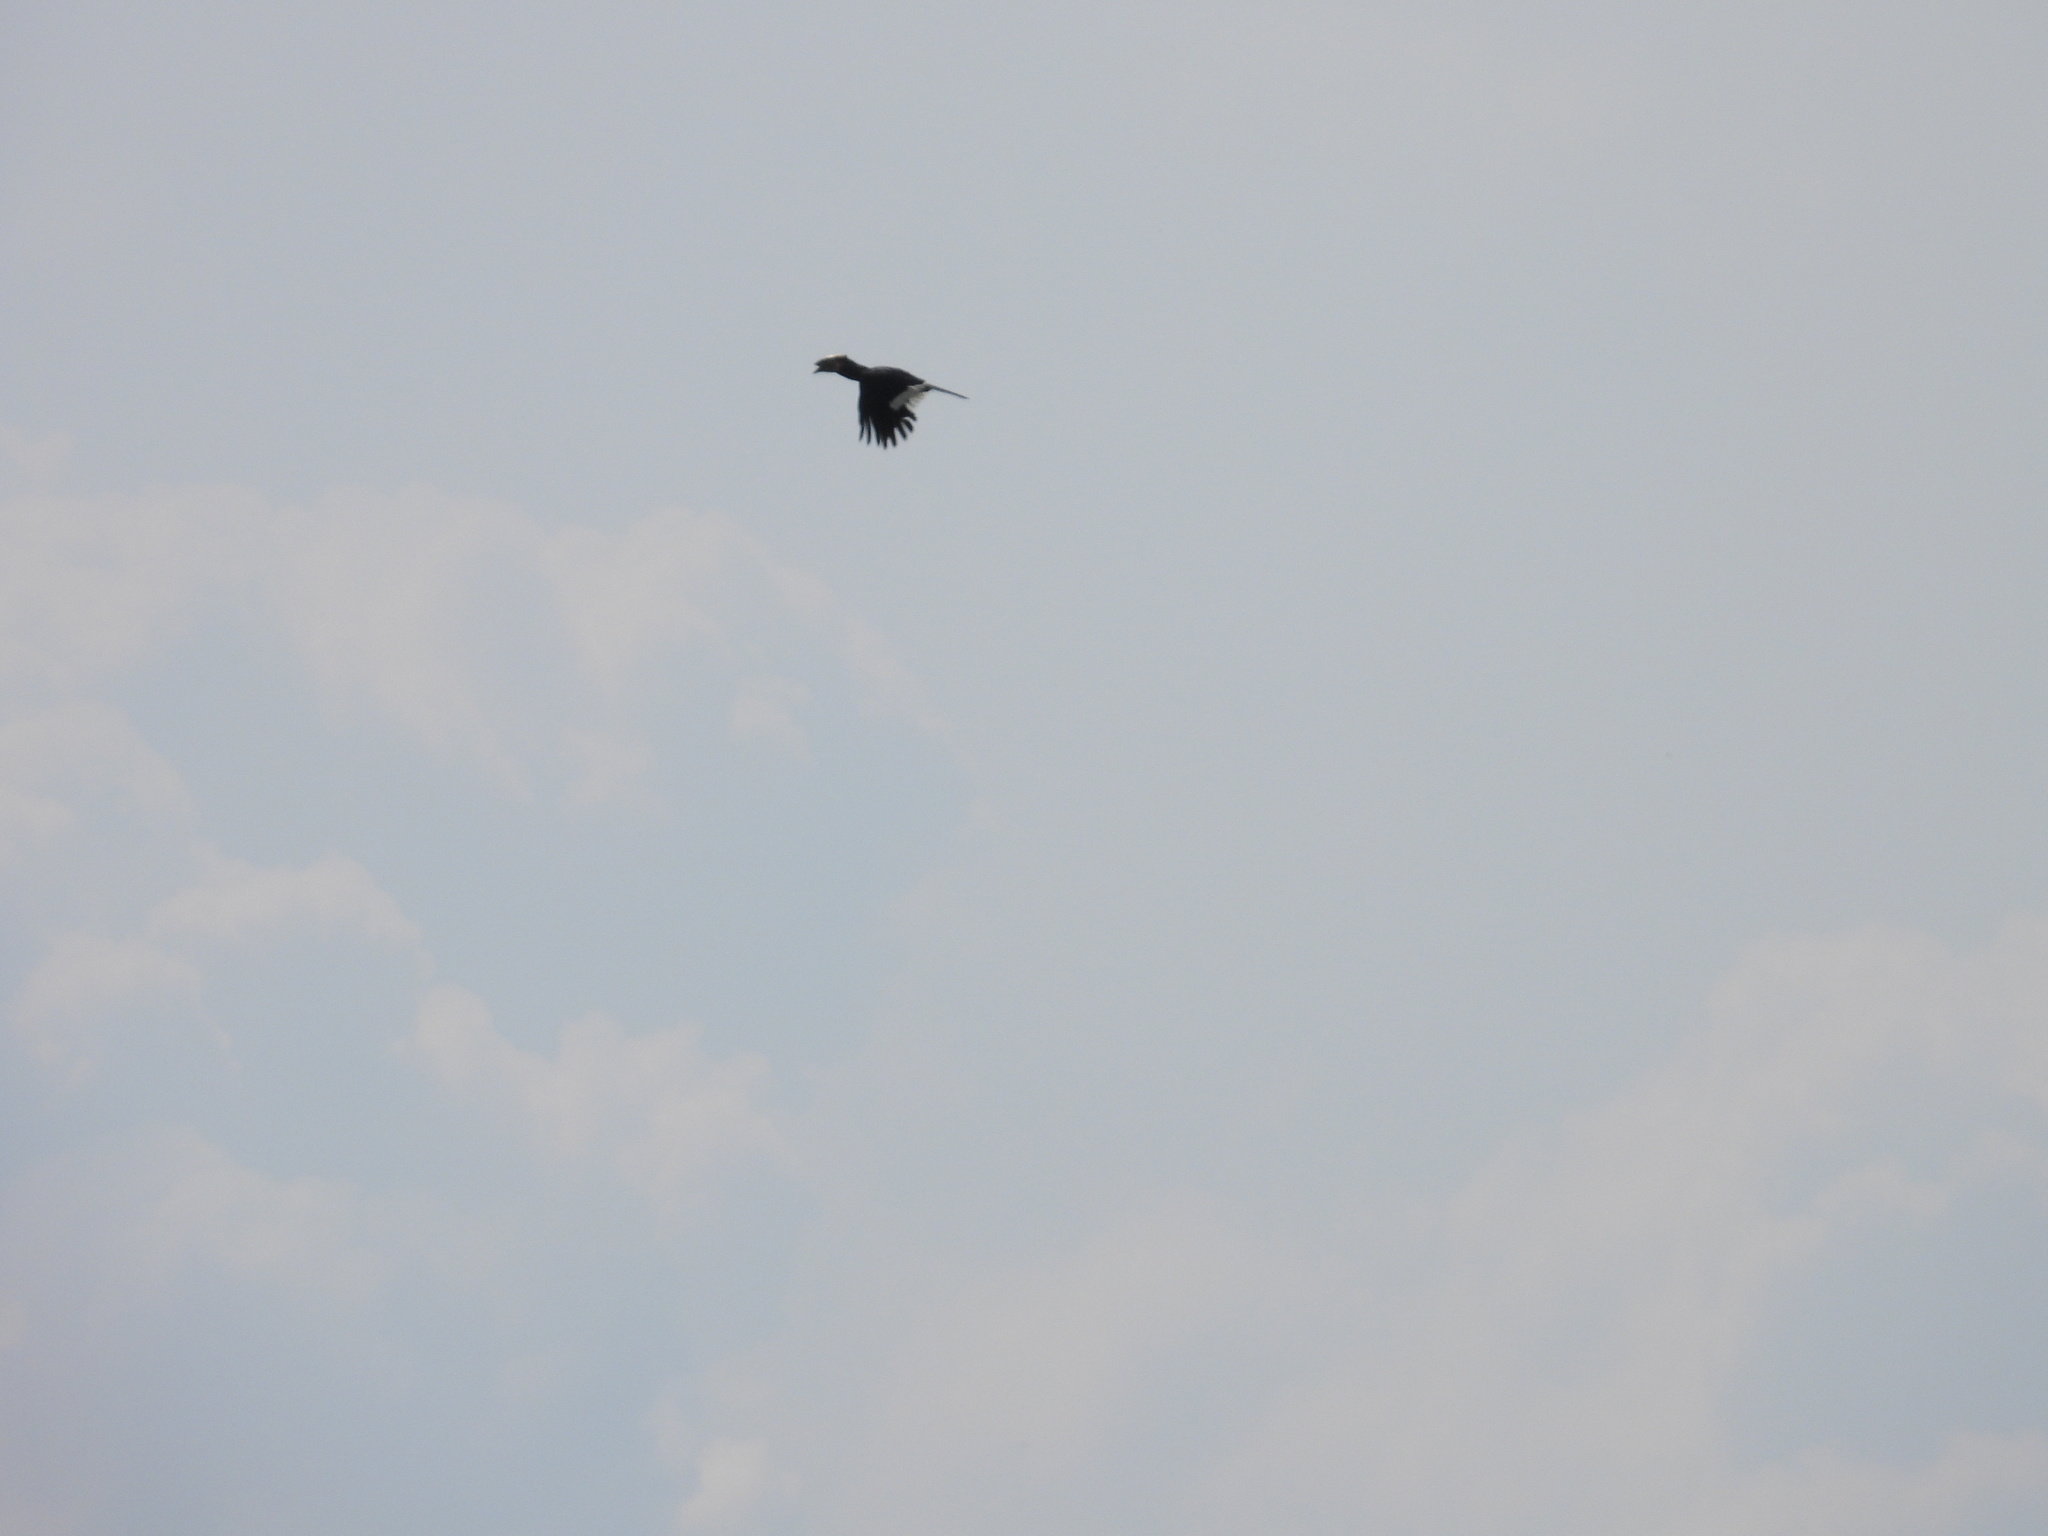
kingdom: Animalia
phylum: Chordata
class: Aves
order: Bucerotiformes
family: Bucerotidae
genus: Bycanistes
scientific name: Bycanistes bucinator
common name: Trumpeter hornbill
